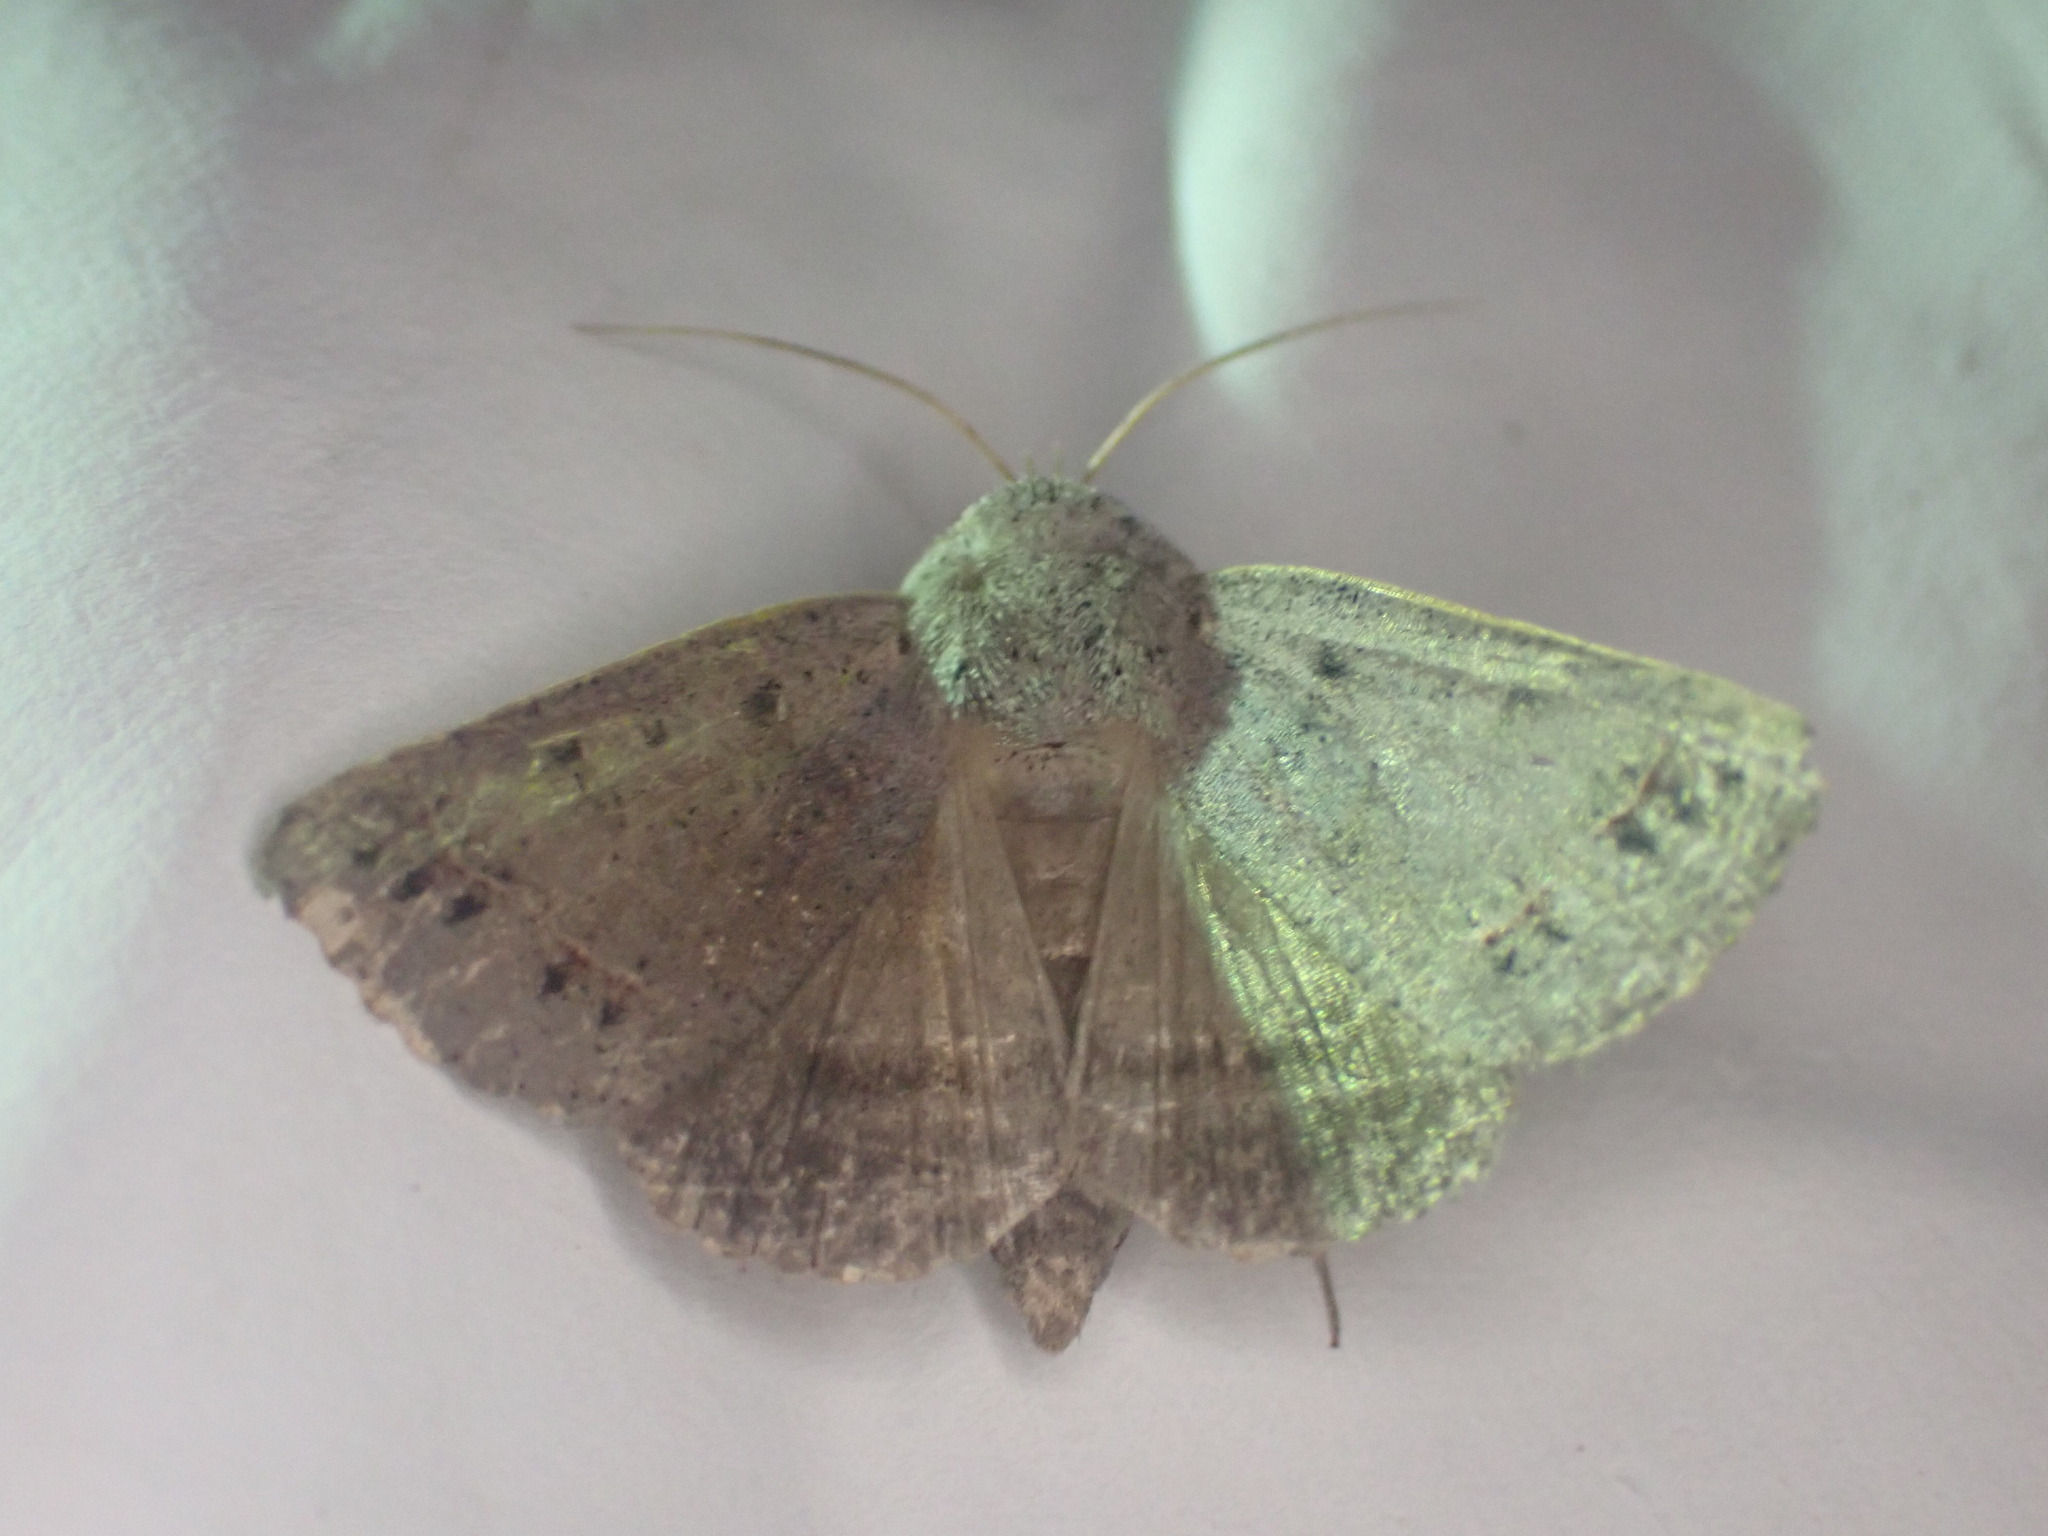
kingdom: Animalia
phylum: Arthropoda
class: Insecta
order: Lepidoptera
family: Erebidae
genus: Pantydia
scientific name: Pantydia sparsa
